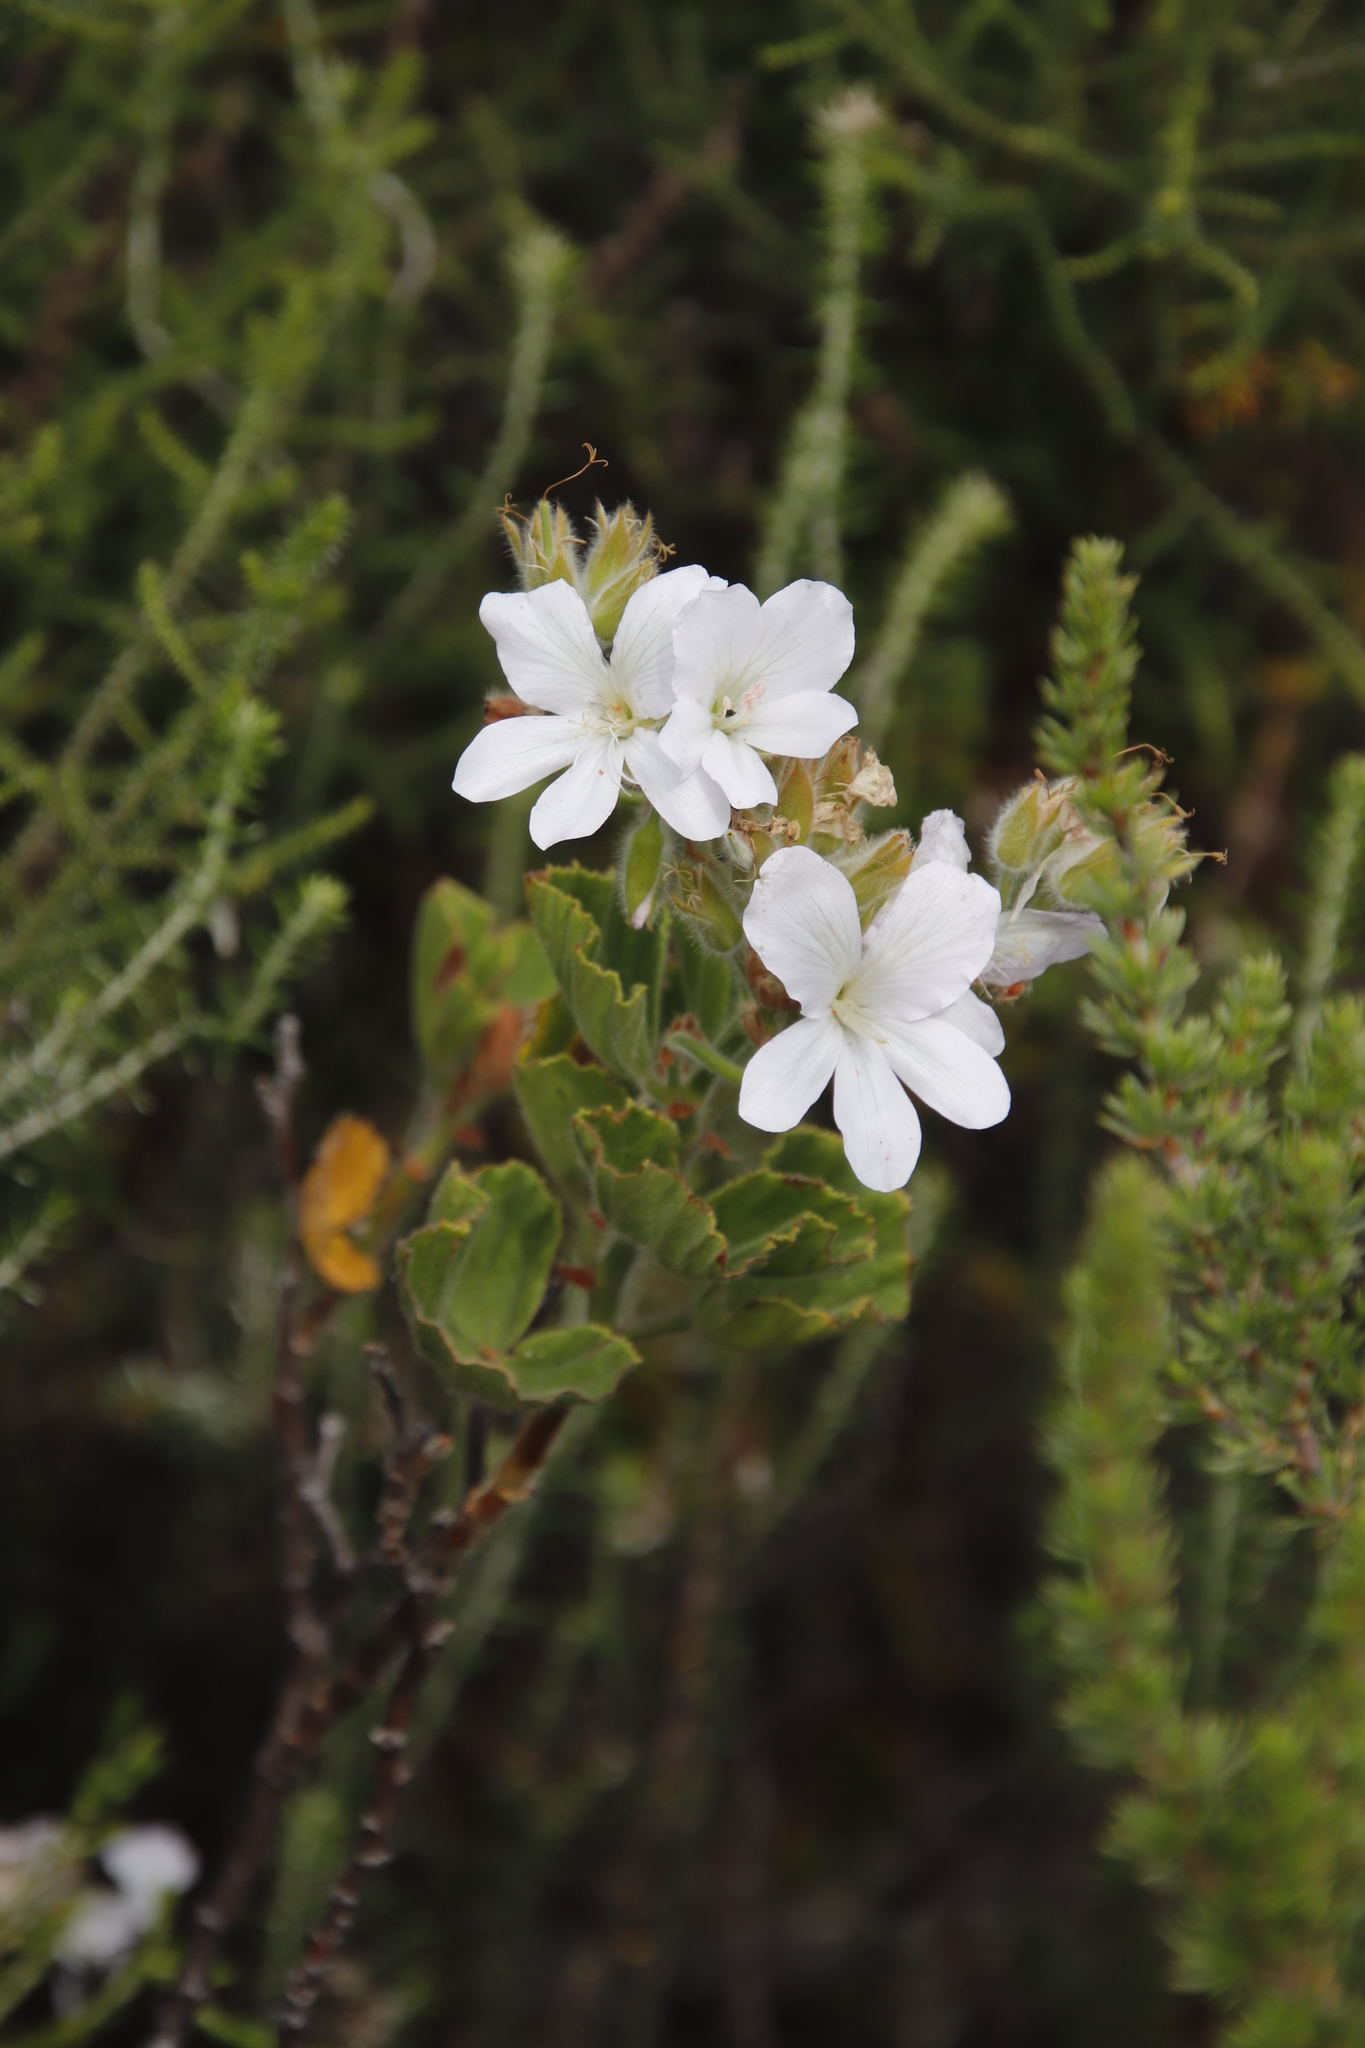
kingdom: Plantae
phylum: Tracheophyta
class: Magnoliopsida
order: Geraniales
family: Geraniaceae
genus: Pelargonium
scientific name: Pelargonium cucullatum
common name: Tree pelargonium
